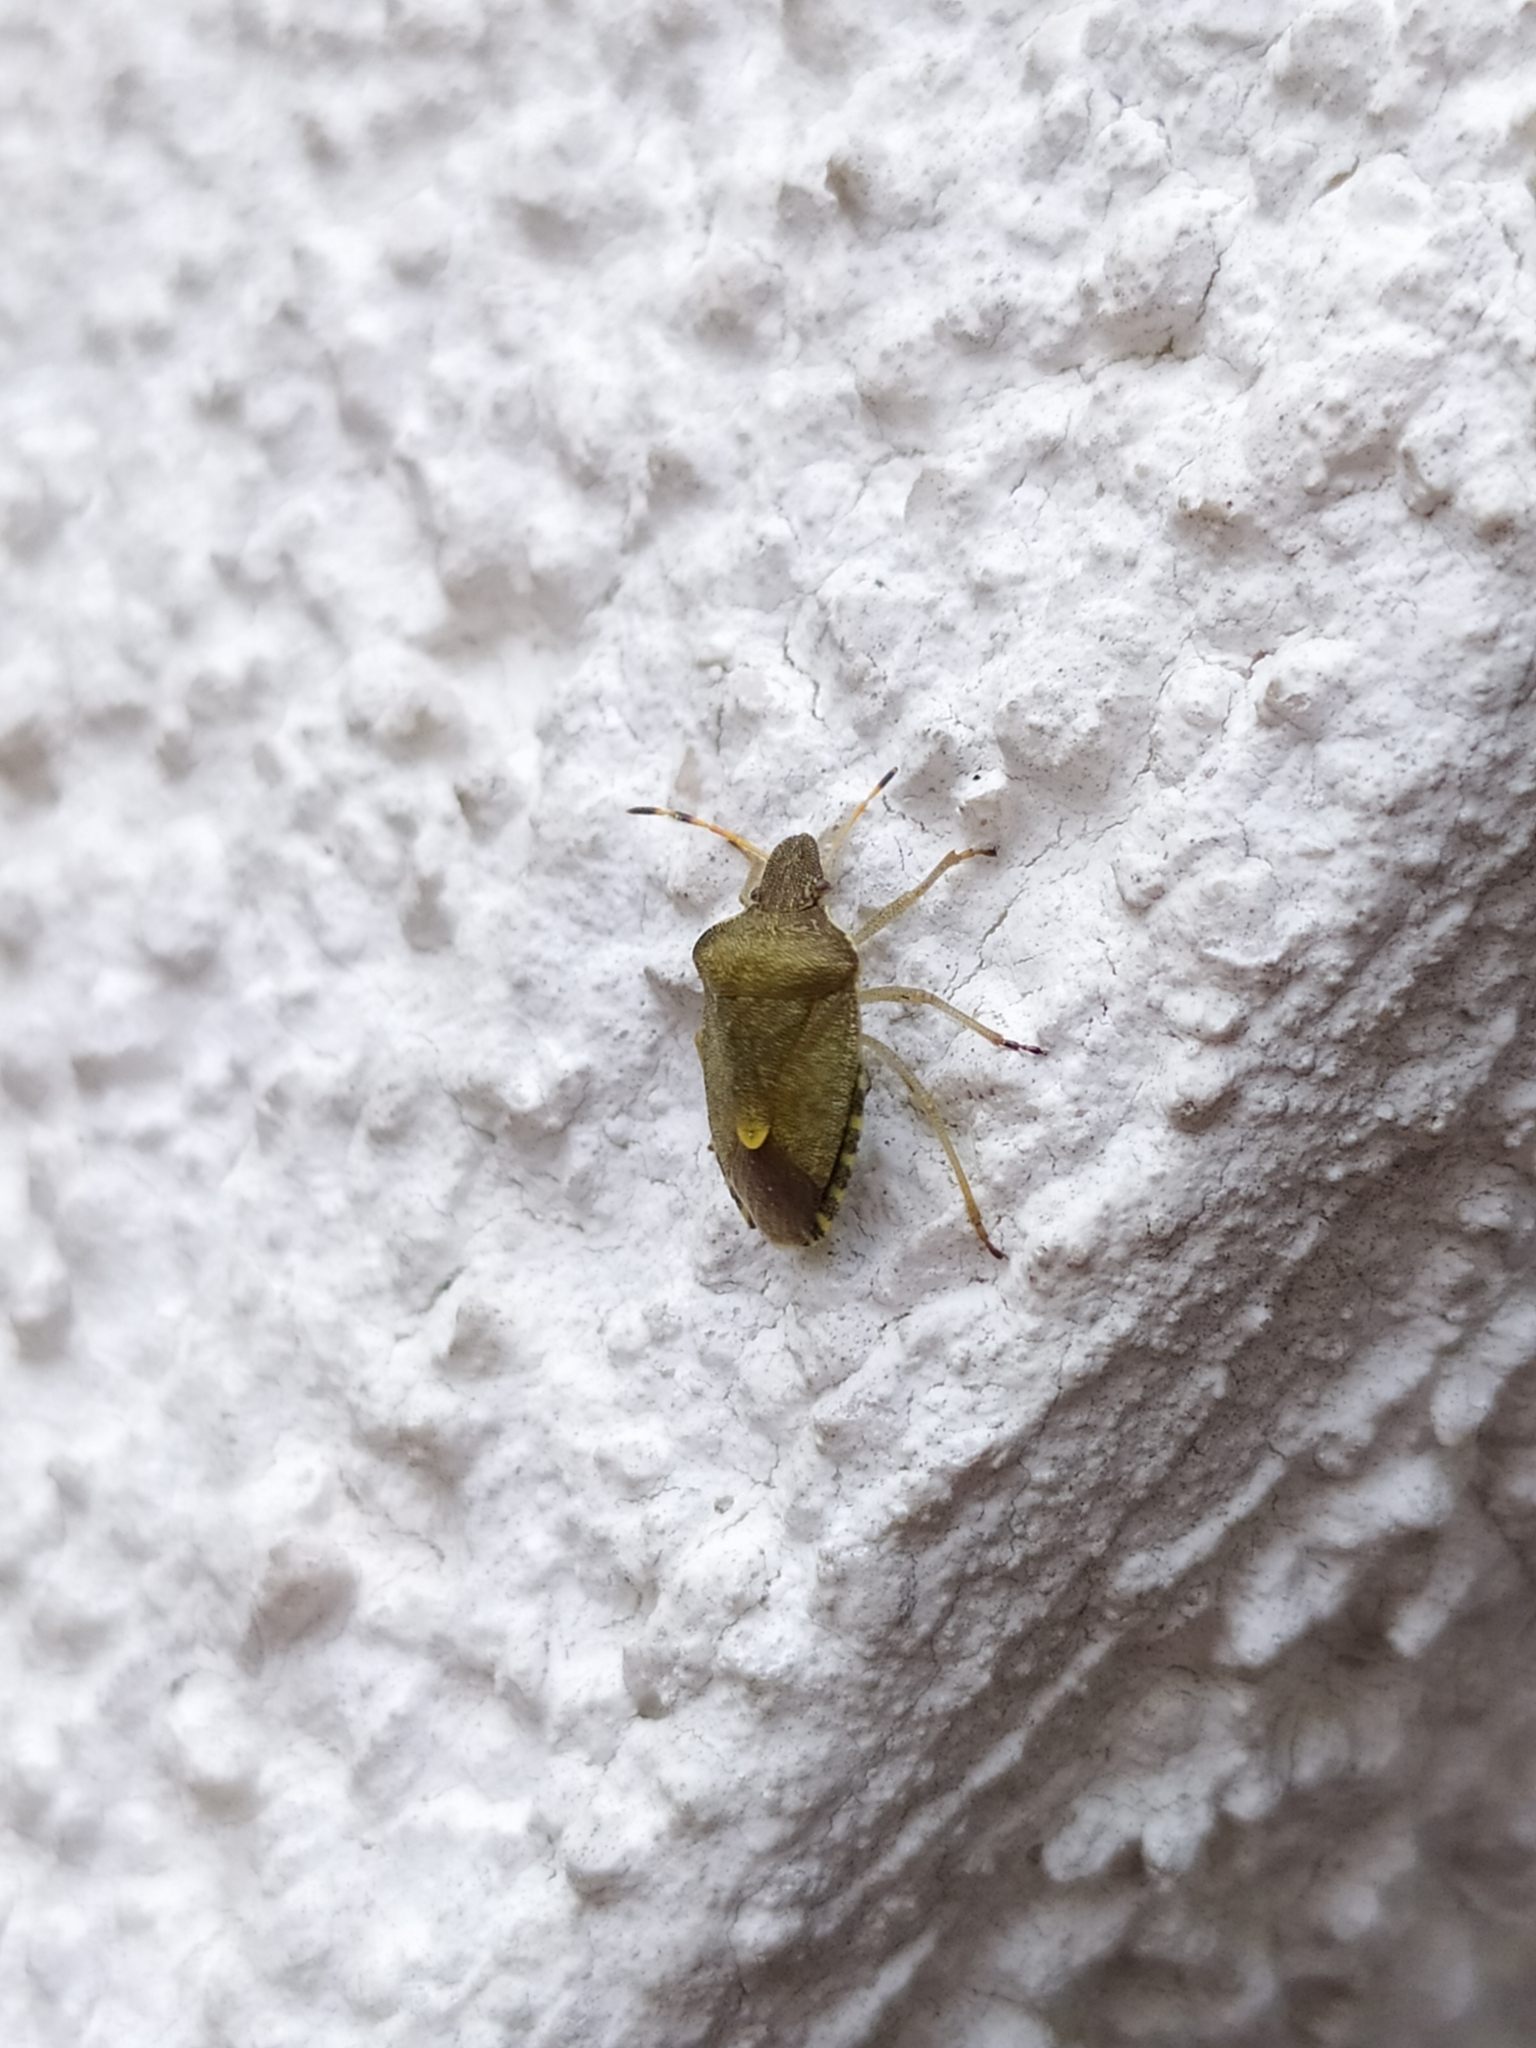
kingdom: Animalia
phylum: Arthropoda
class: Insecta
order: Hemiptera
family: Pentatomidae
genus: Holcostethus
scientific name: Holcostethus strictus
